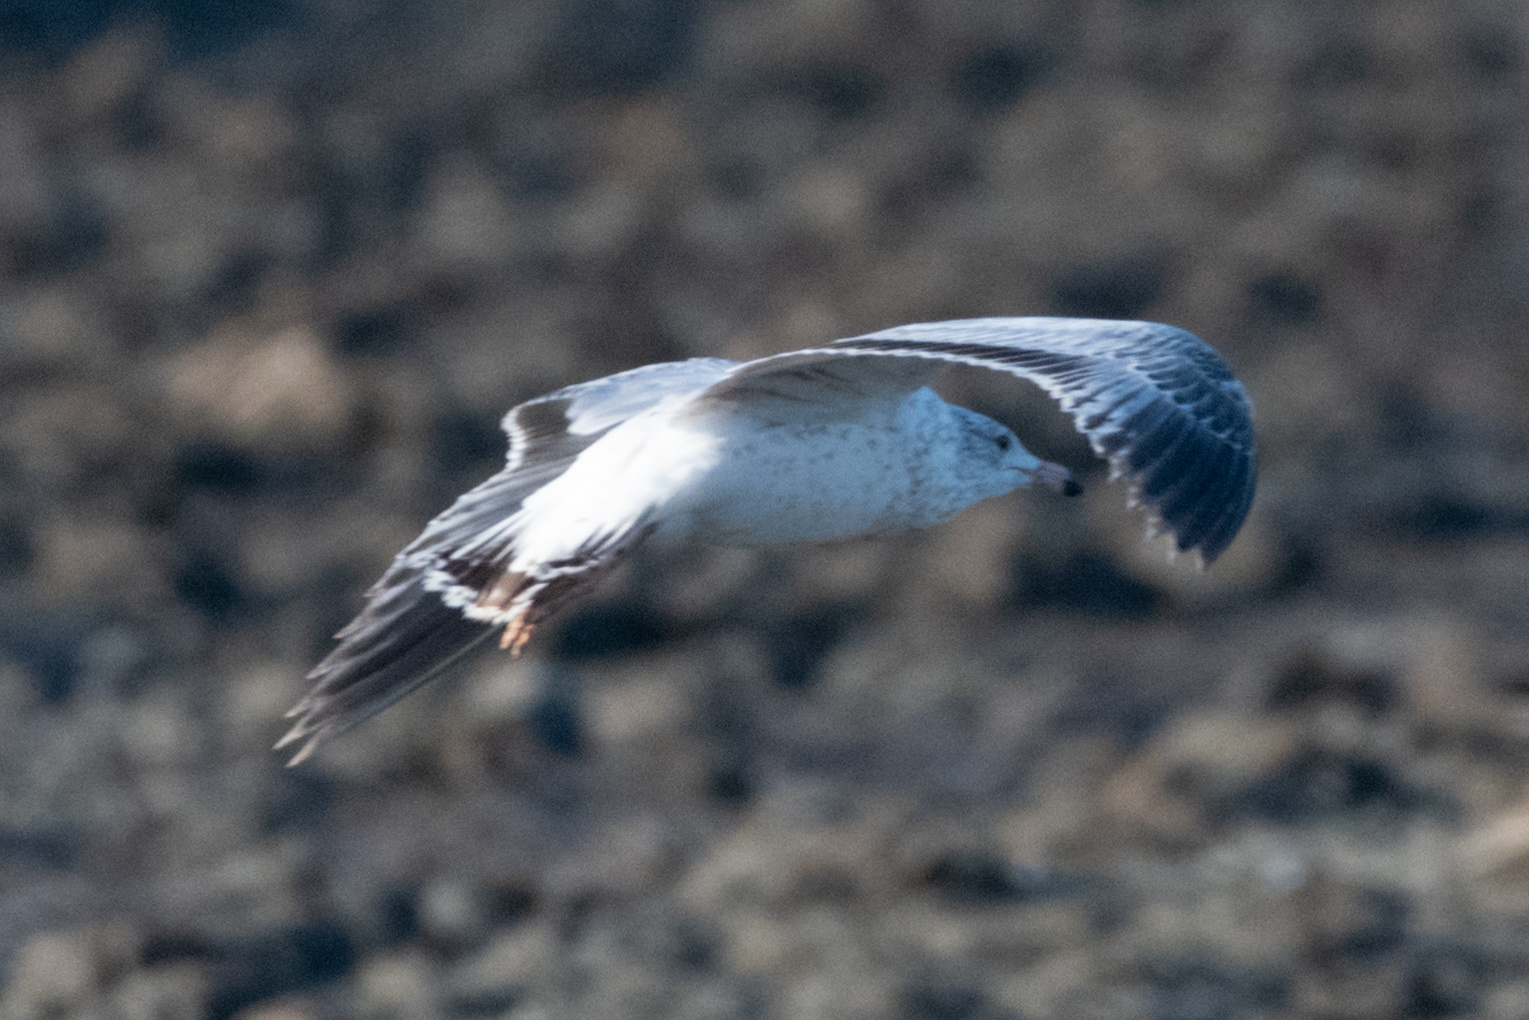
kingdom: Animalia
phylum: Chordata
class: Aves
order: Charadriiformes
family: Laridae
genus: Larus
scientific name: Larus delawarensis
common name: Ring-billed gull
